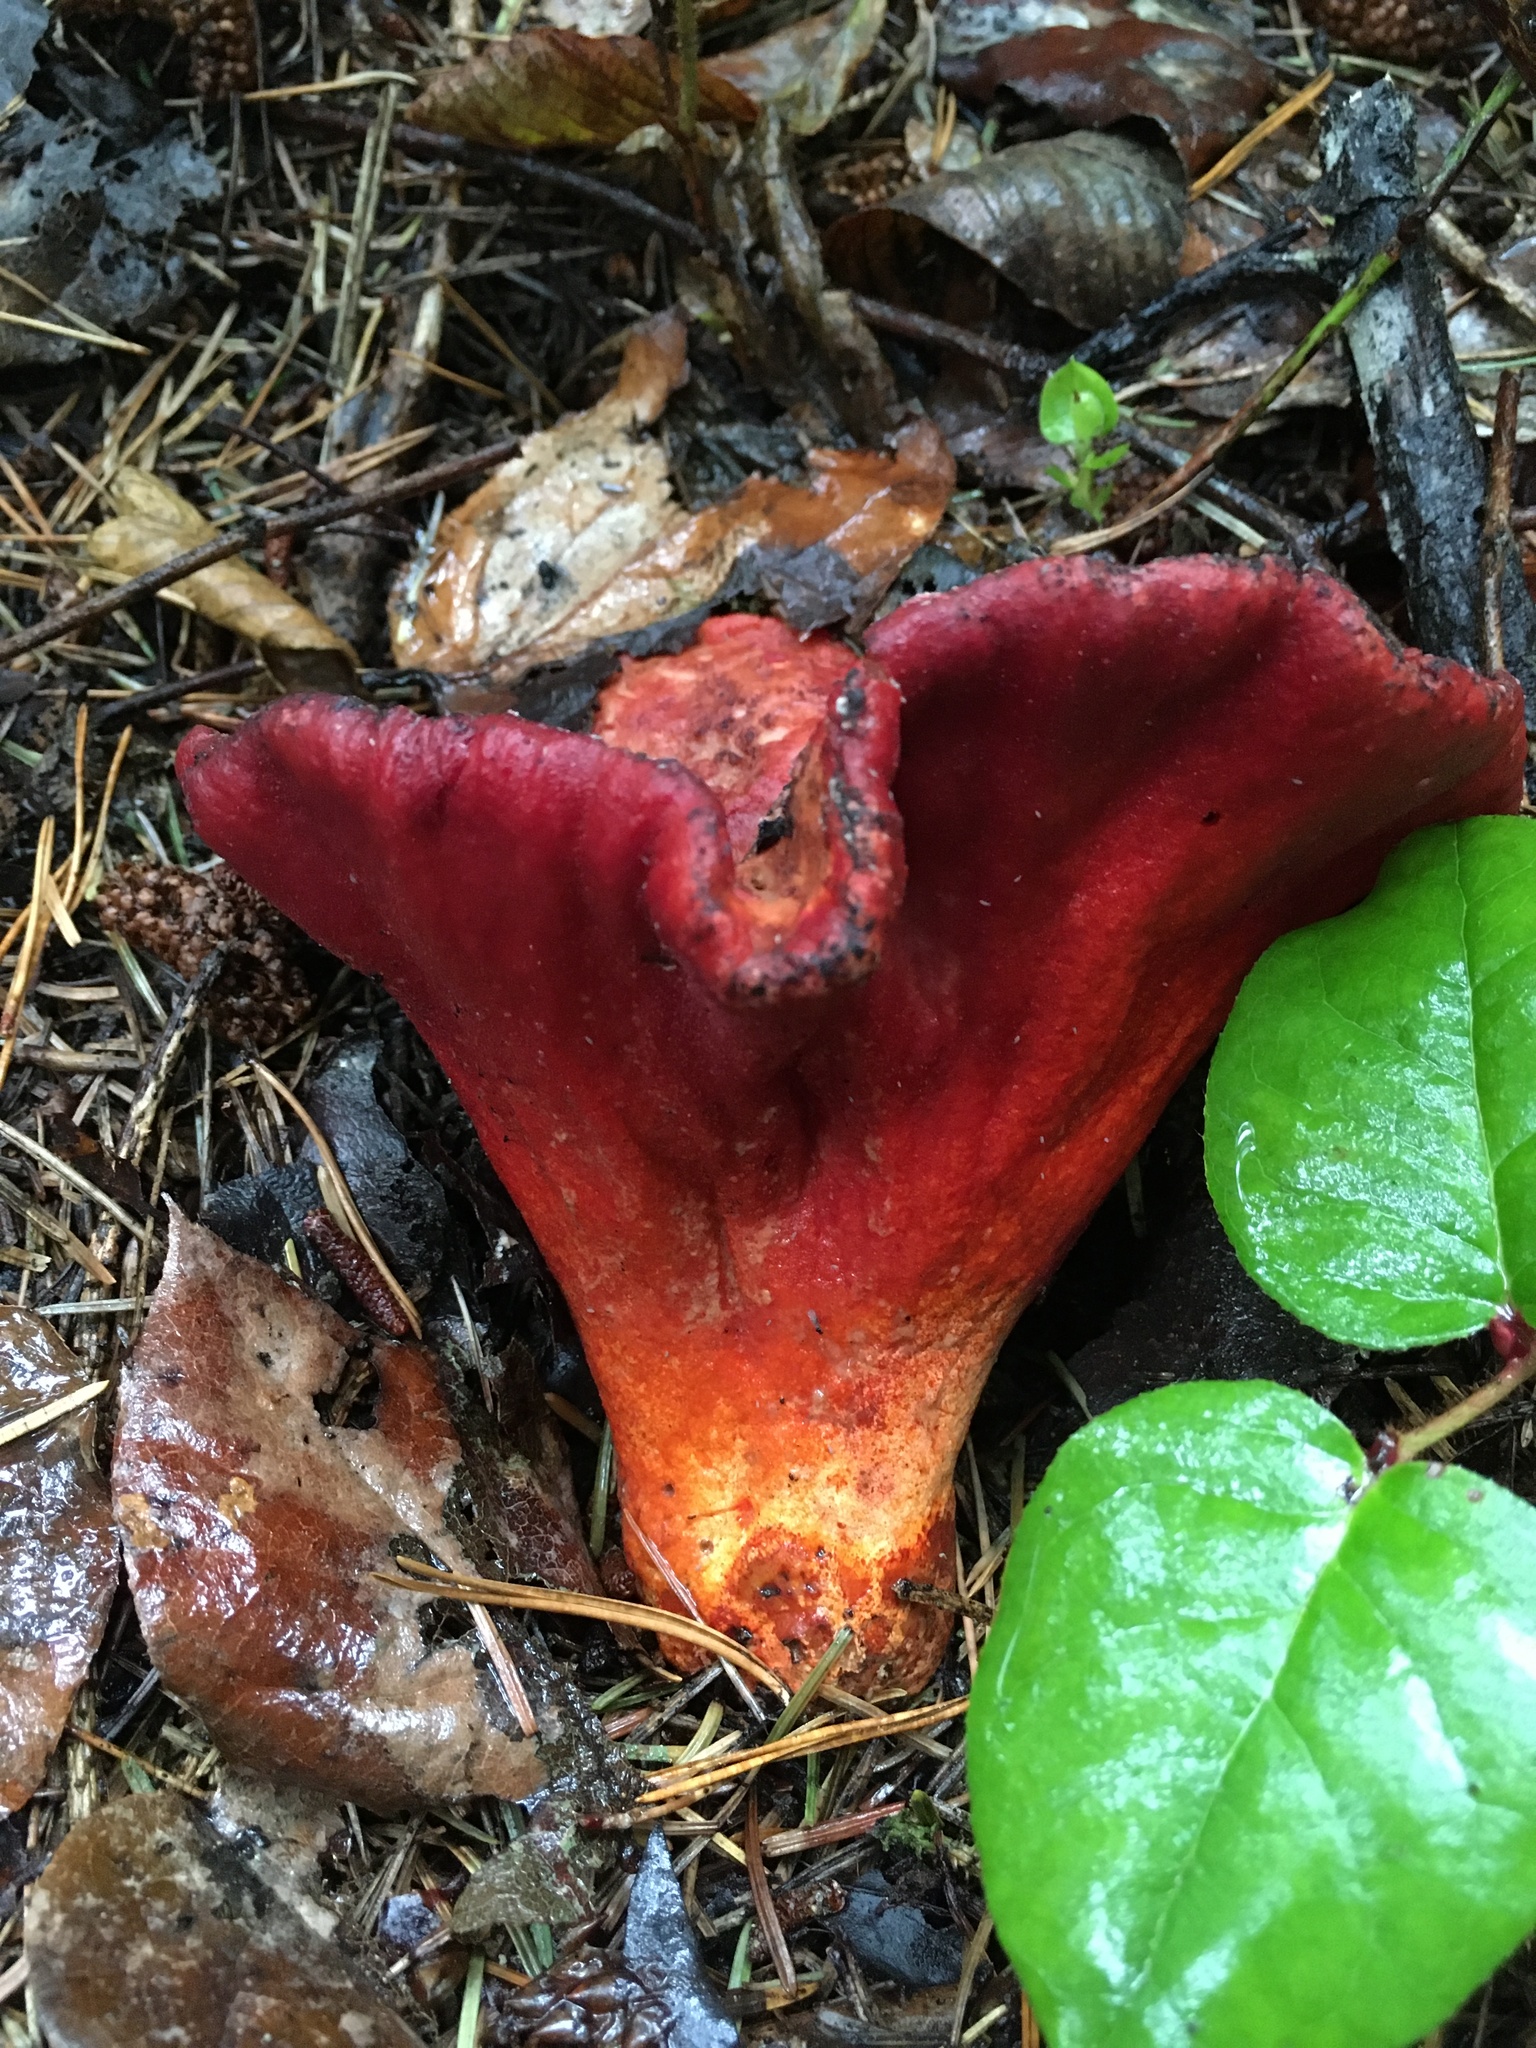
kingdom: Fungi
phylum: Ascomycota
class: Sordariomycetes
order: Hypocreales
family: Hypocreaceae
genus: Hypomyces
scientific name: Hypomyces lactifluorum
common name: Lobster mushroom
